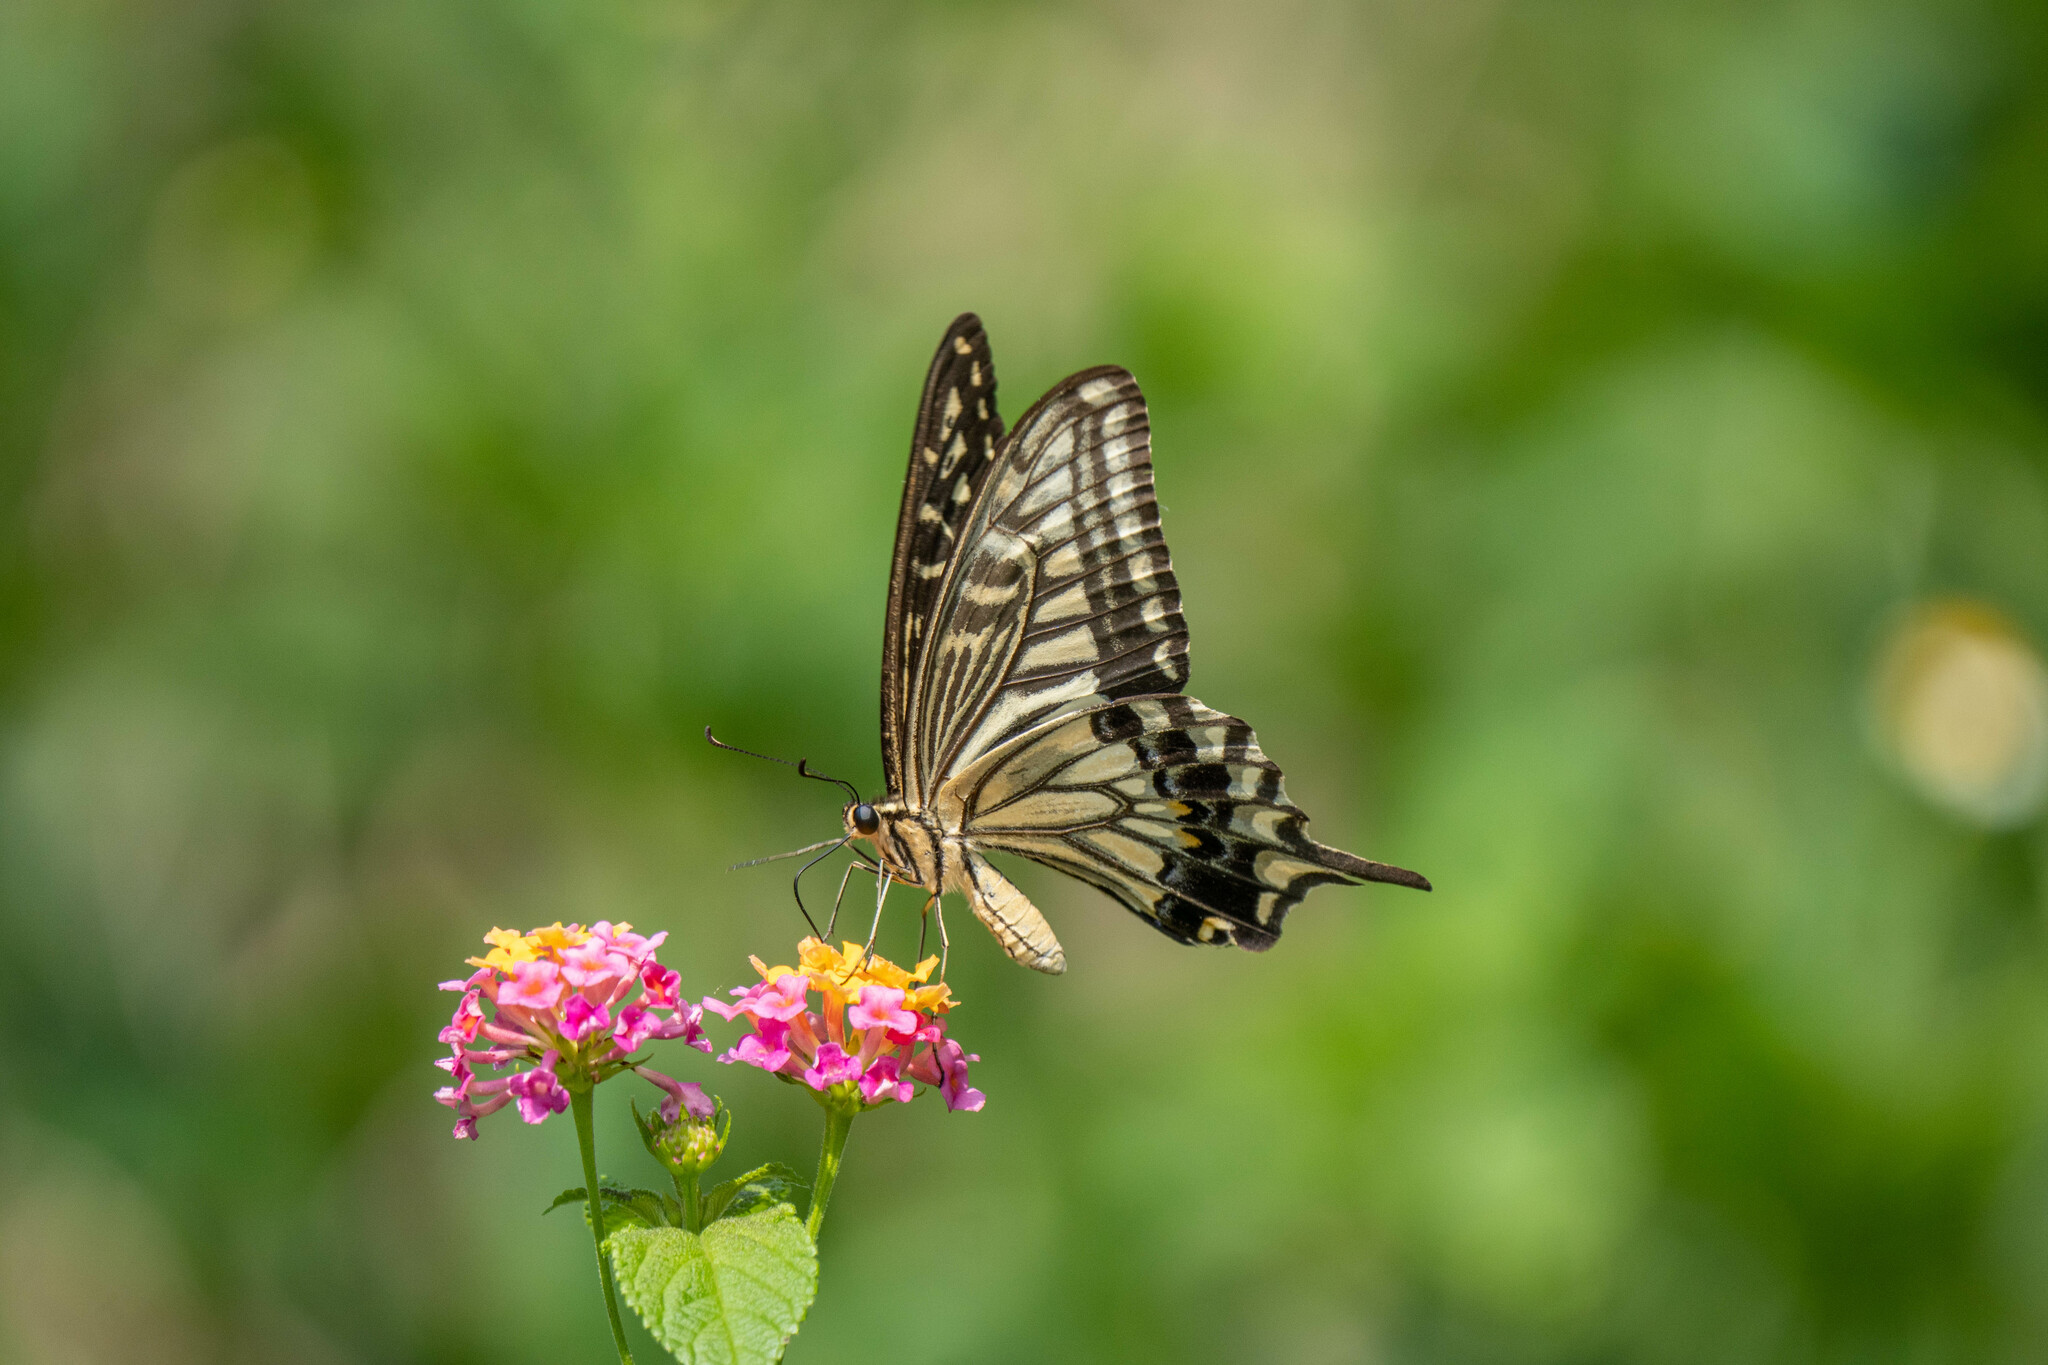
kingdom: Animalia
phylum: Arthropoda
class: Insecta
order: Lepidoptera
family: Papilionidae
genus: Papilio
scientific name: Papilio xuthus
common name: Asian swallowtail
